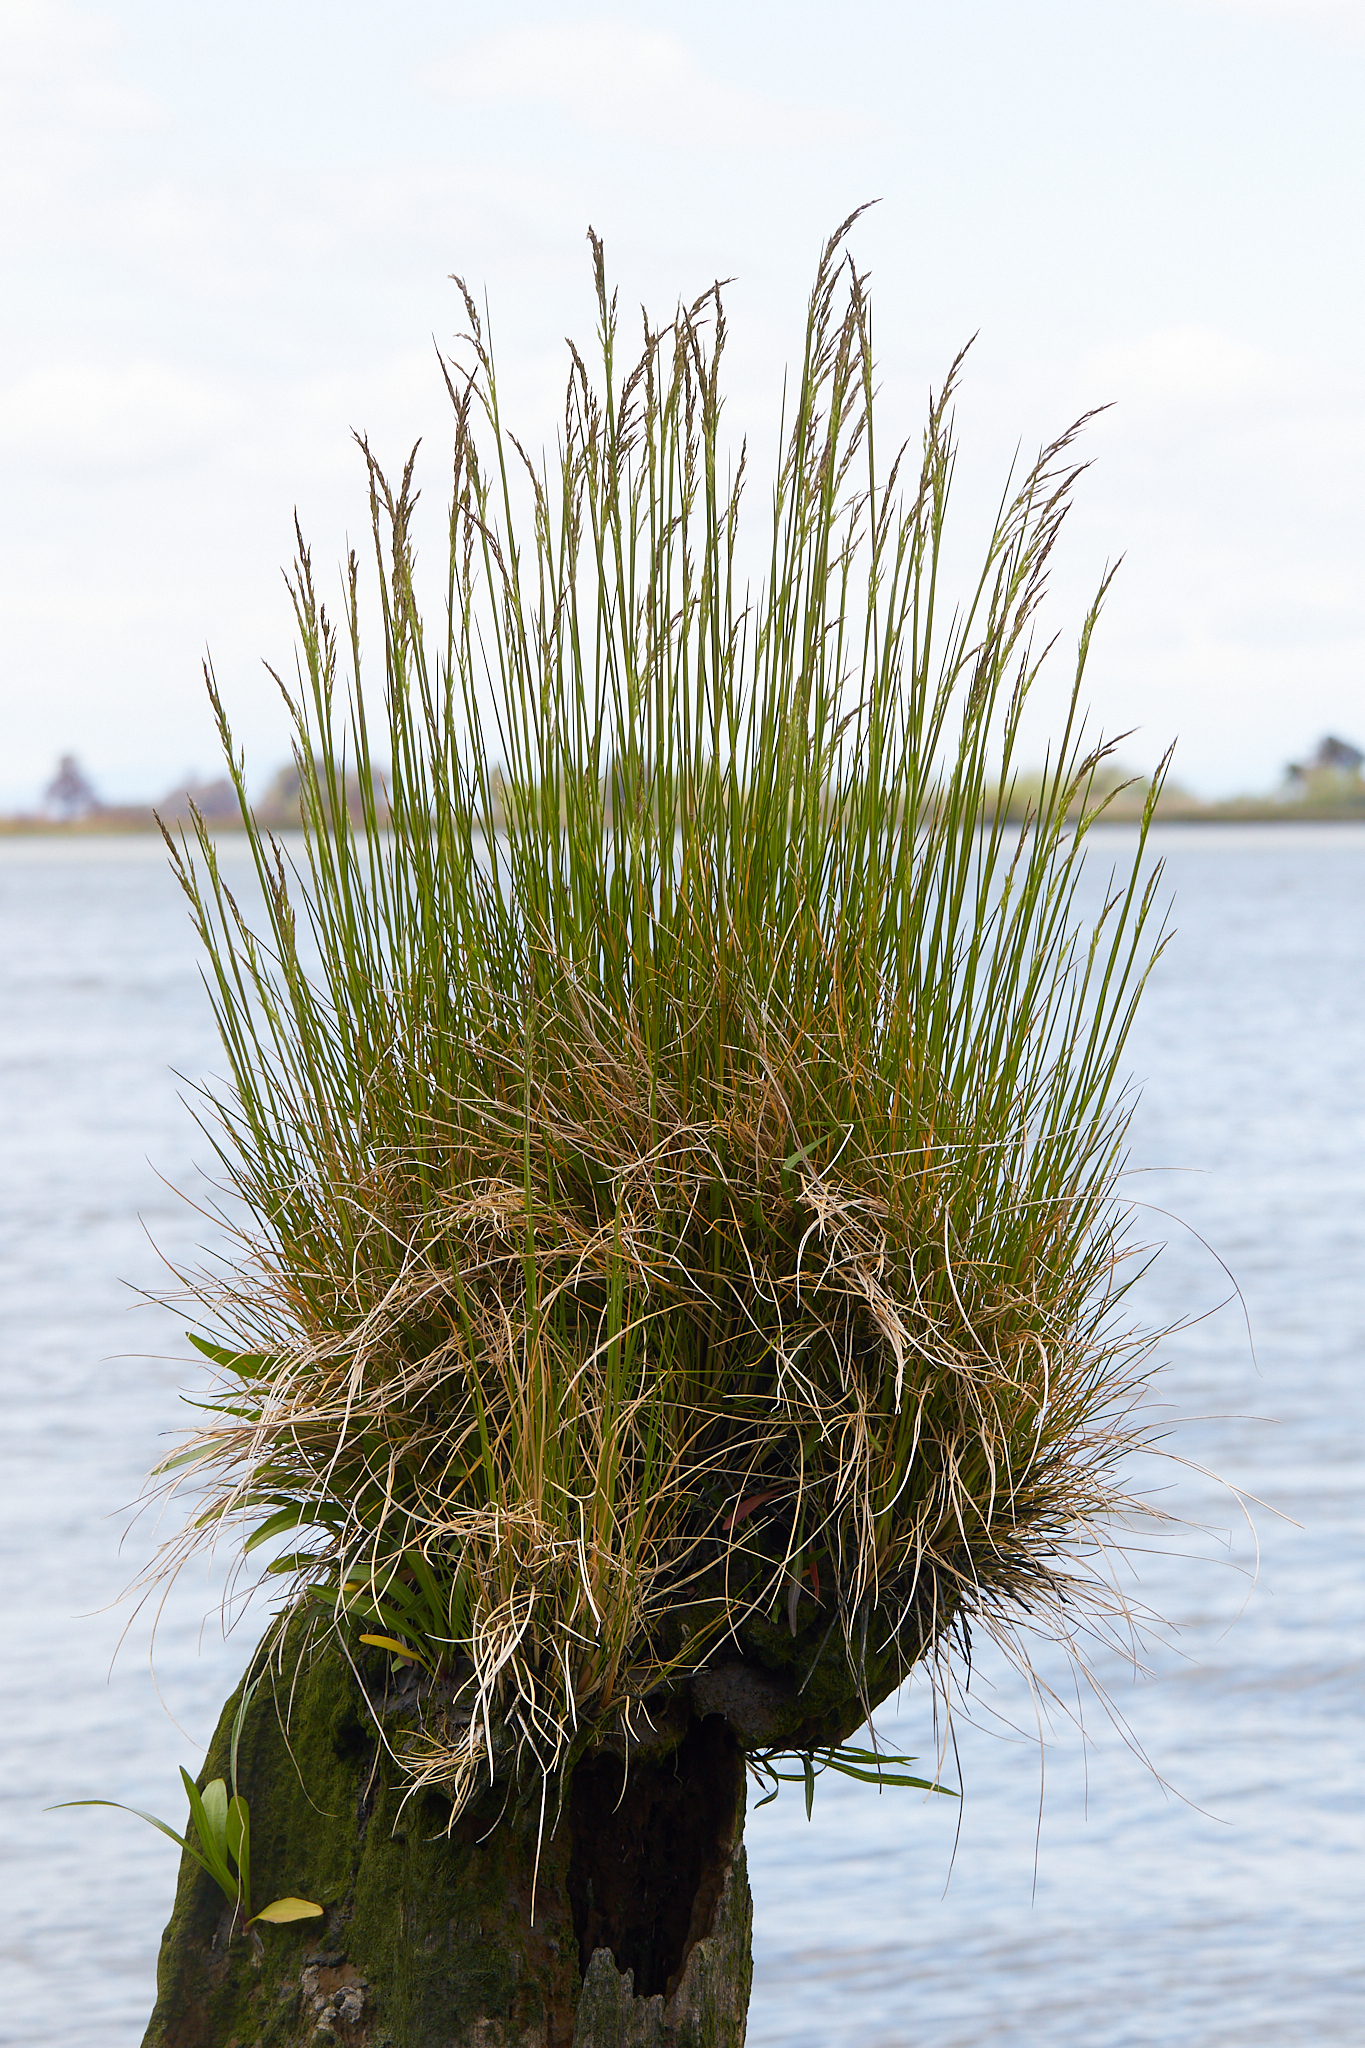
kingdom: Plantae
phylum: Tracheophyta
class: Liliopsida
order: Poales
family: Poaceae
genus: Deschampsia
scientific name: Deschampsia cespitosa
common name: Tufted hair-grass
